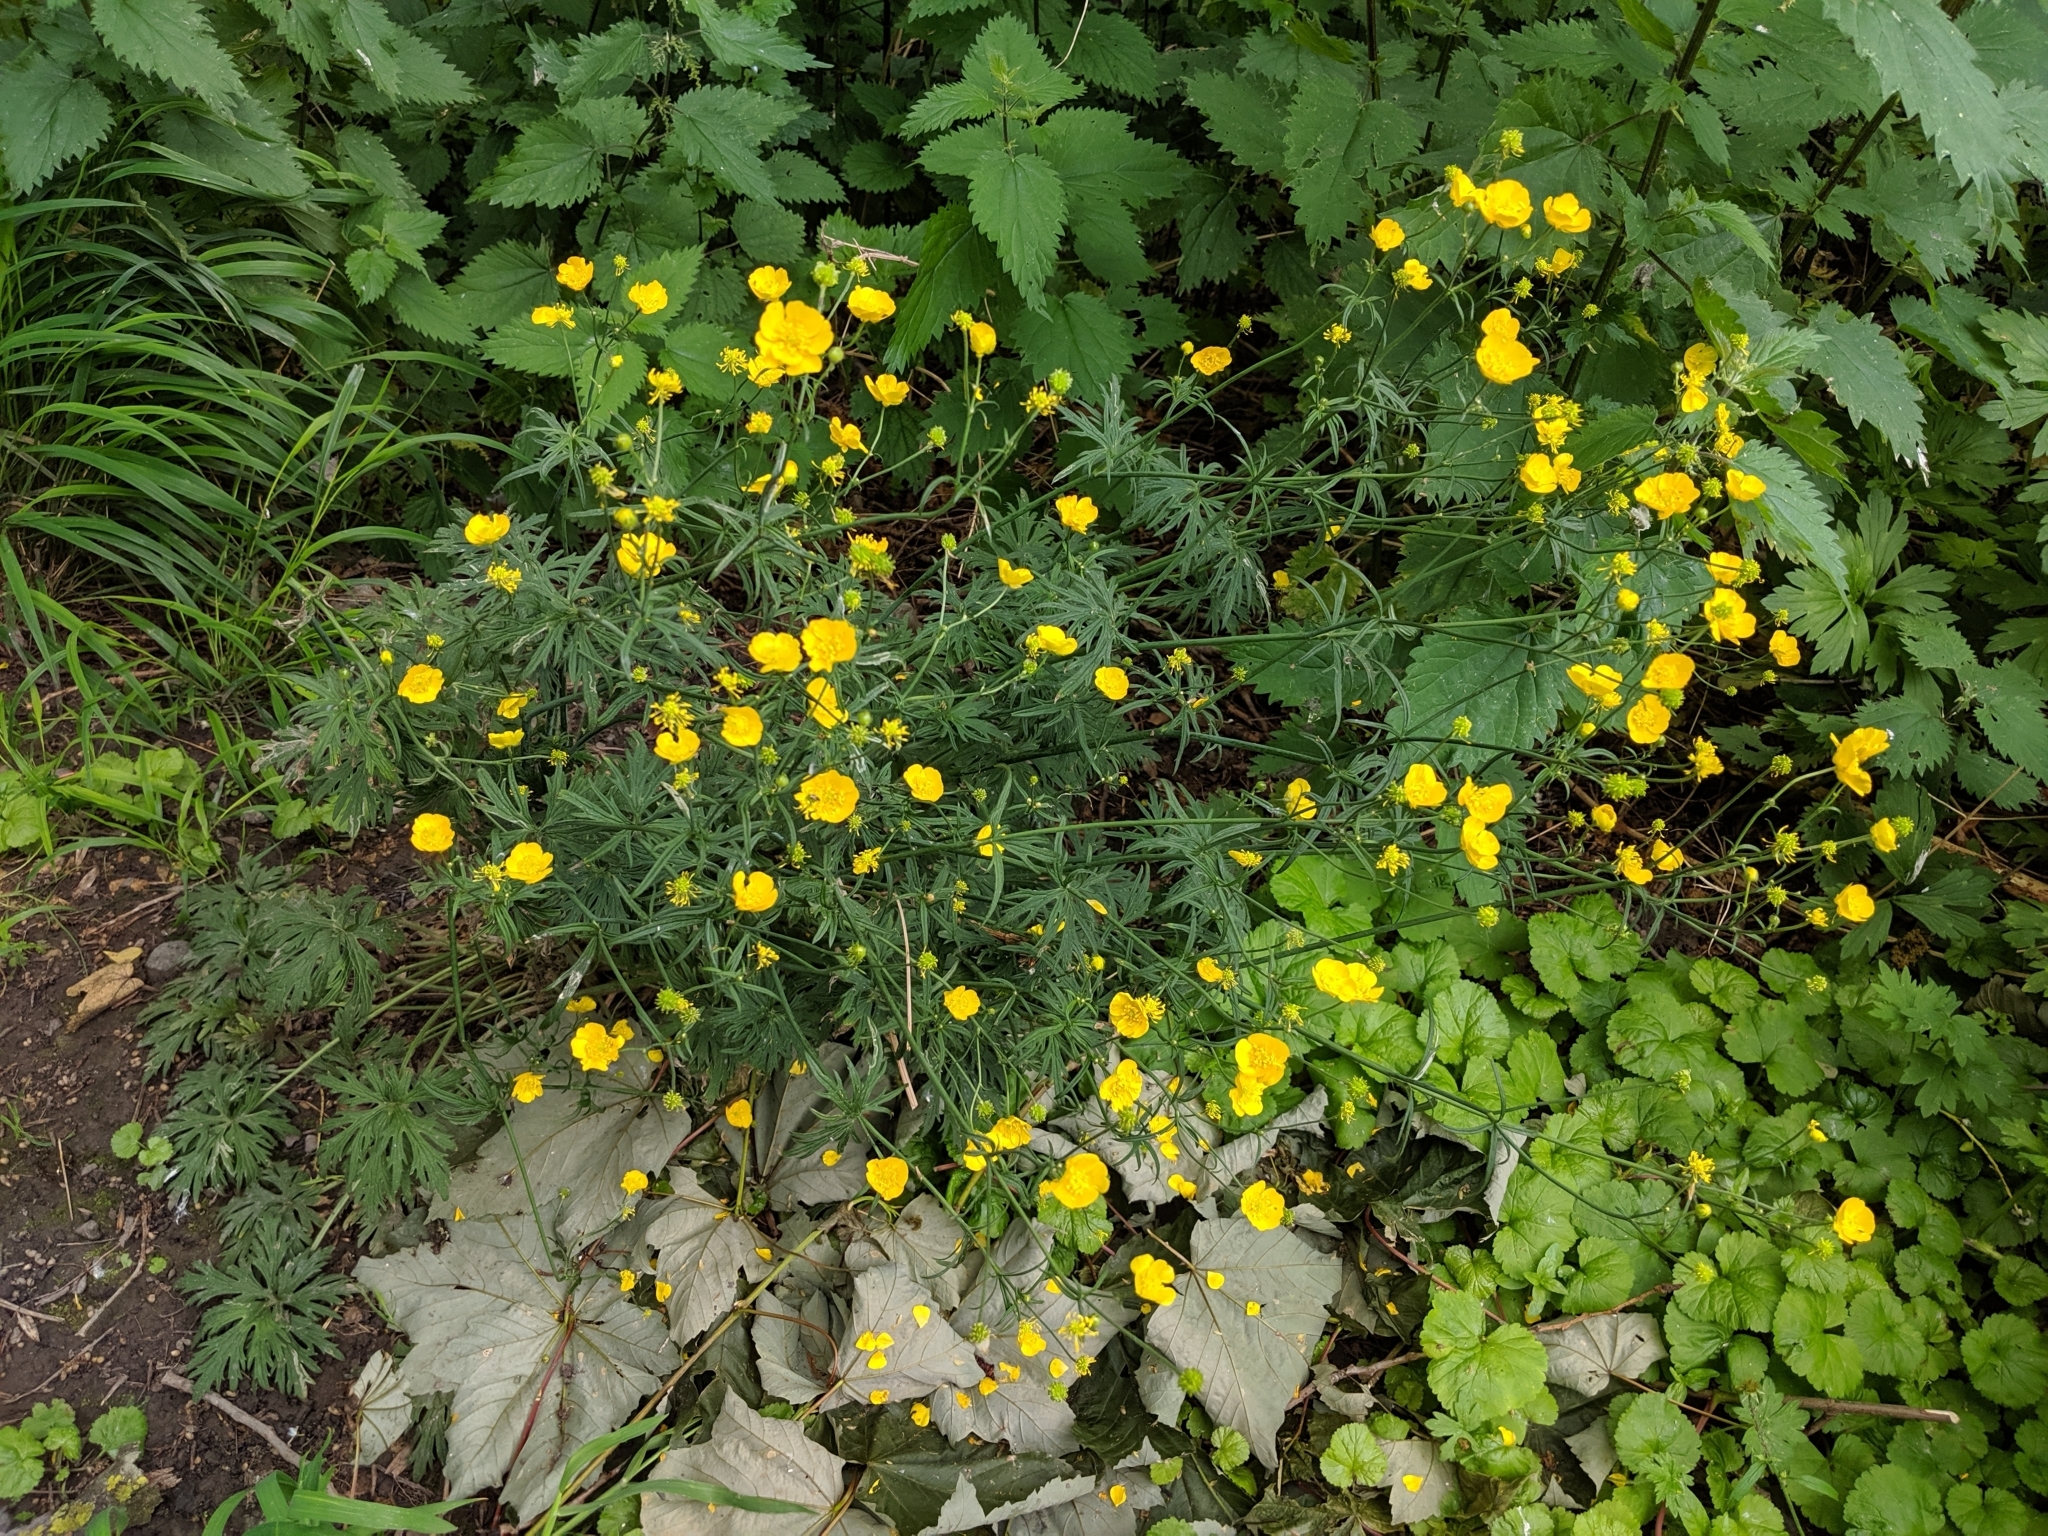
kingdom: Plantae
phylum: Tracheophyta
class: Magnoliopsida
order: Ranunculales
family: Ranunculaceae
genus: Ranunculus
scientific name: Ranunculus acris
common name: Meadow buttercup
